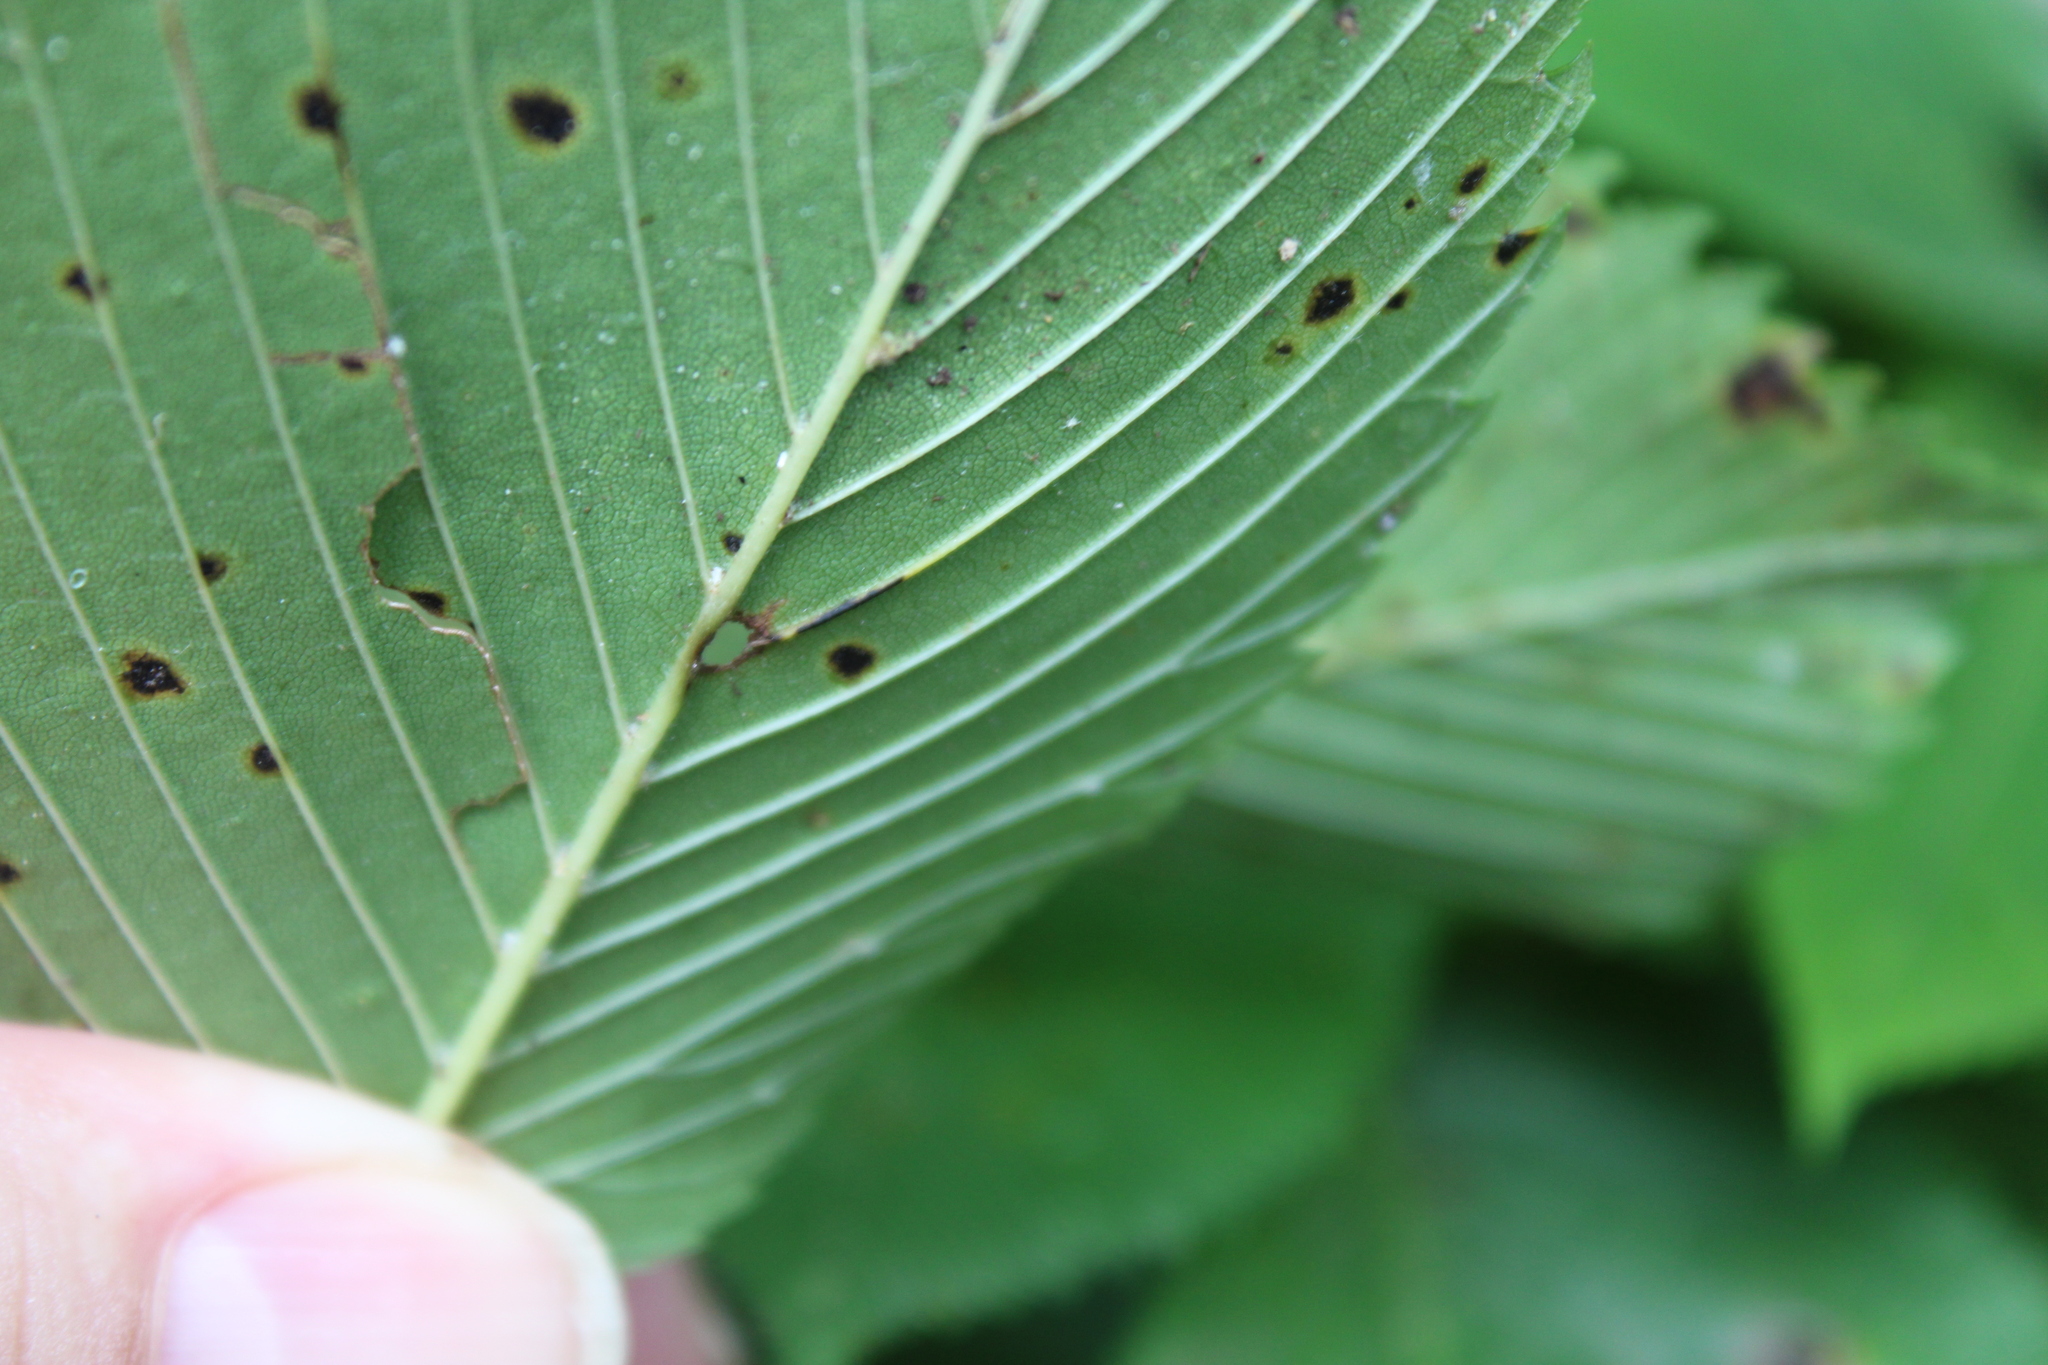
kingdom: Animalia
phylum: Arthropoda
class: Arachnida
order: Trombidiformes
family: Eriophyidae
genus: Aceria
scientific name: Aceria
